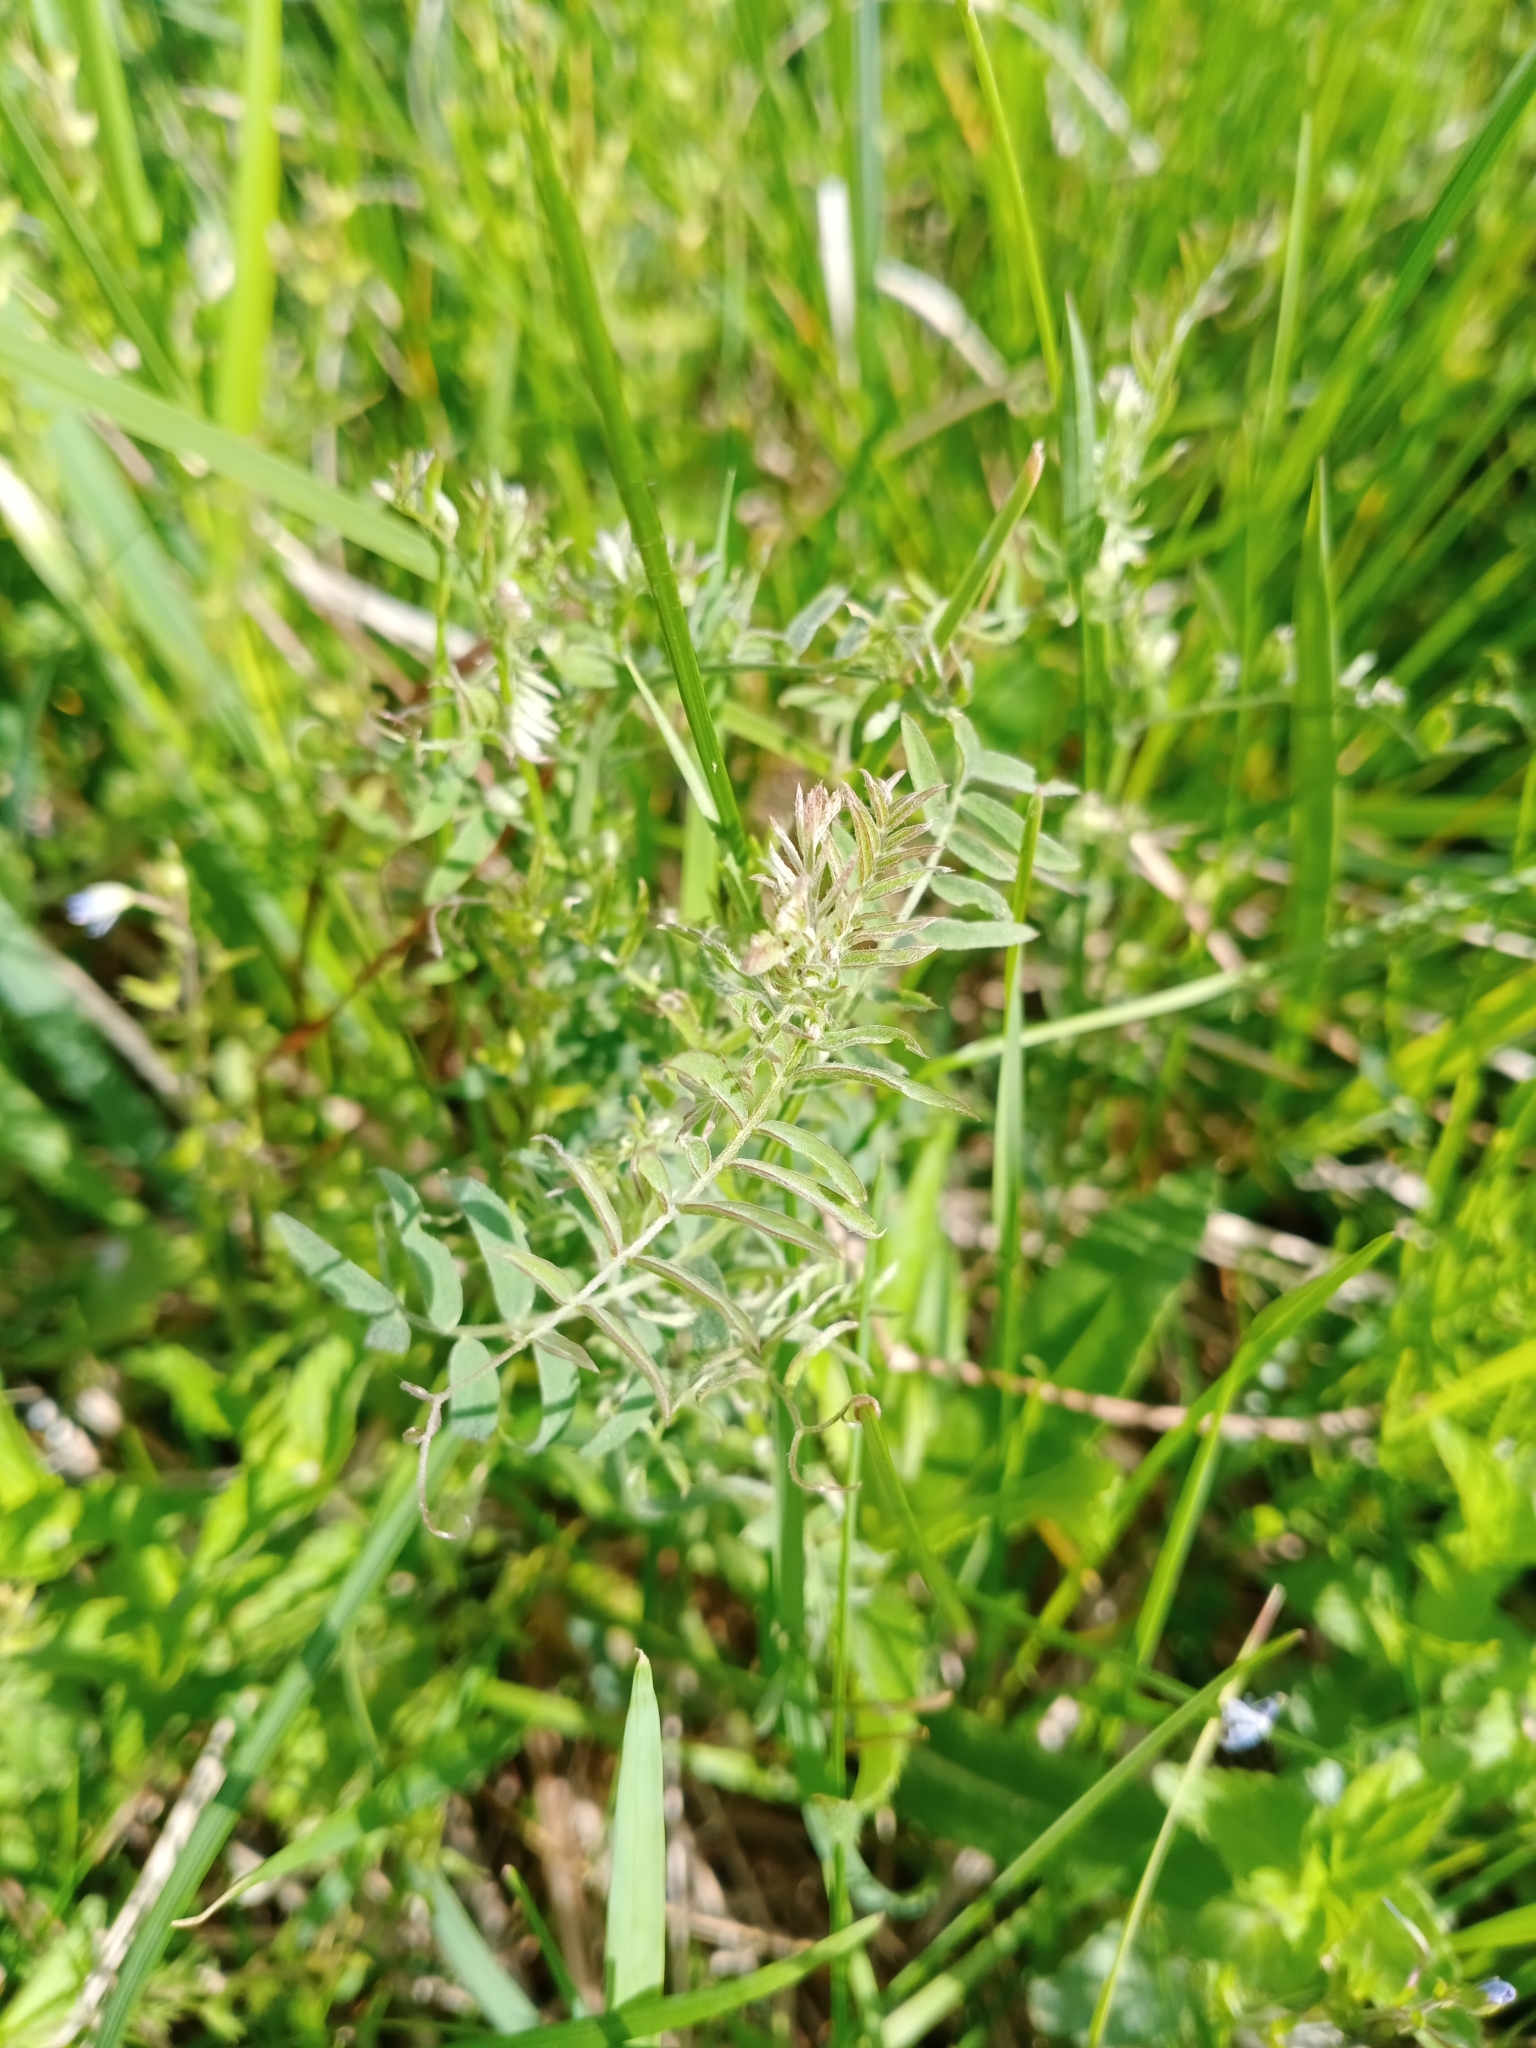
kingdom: Plantae
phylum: Tracheophyta
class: Magnoliopsida
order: Fabales
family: Fabaceae
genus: Vicia
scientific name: Vicia cracca
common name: Bird vetch
